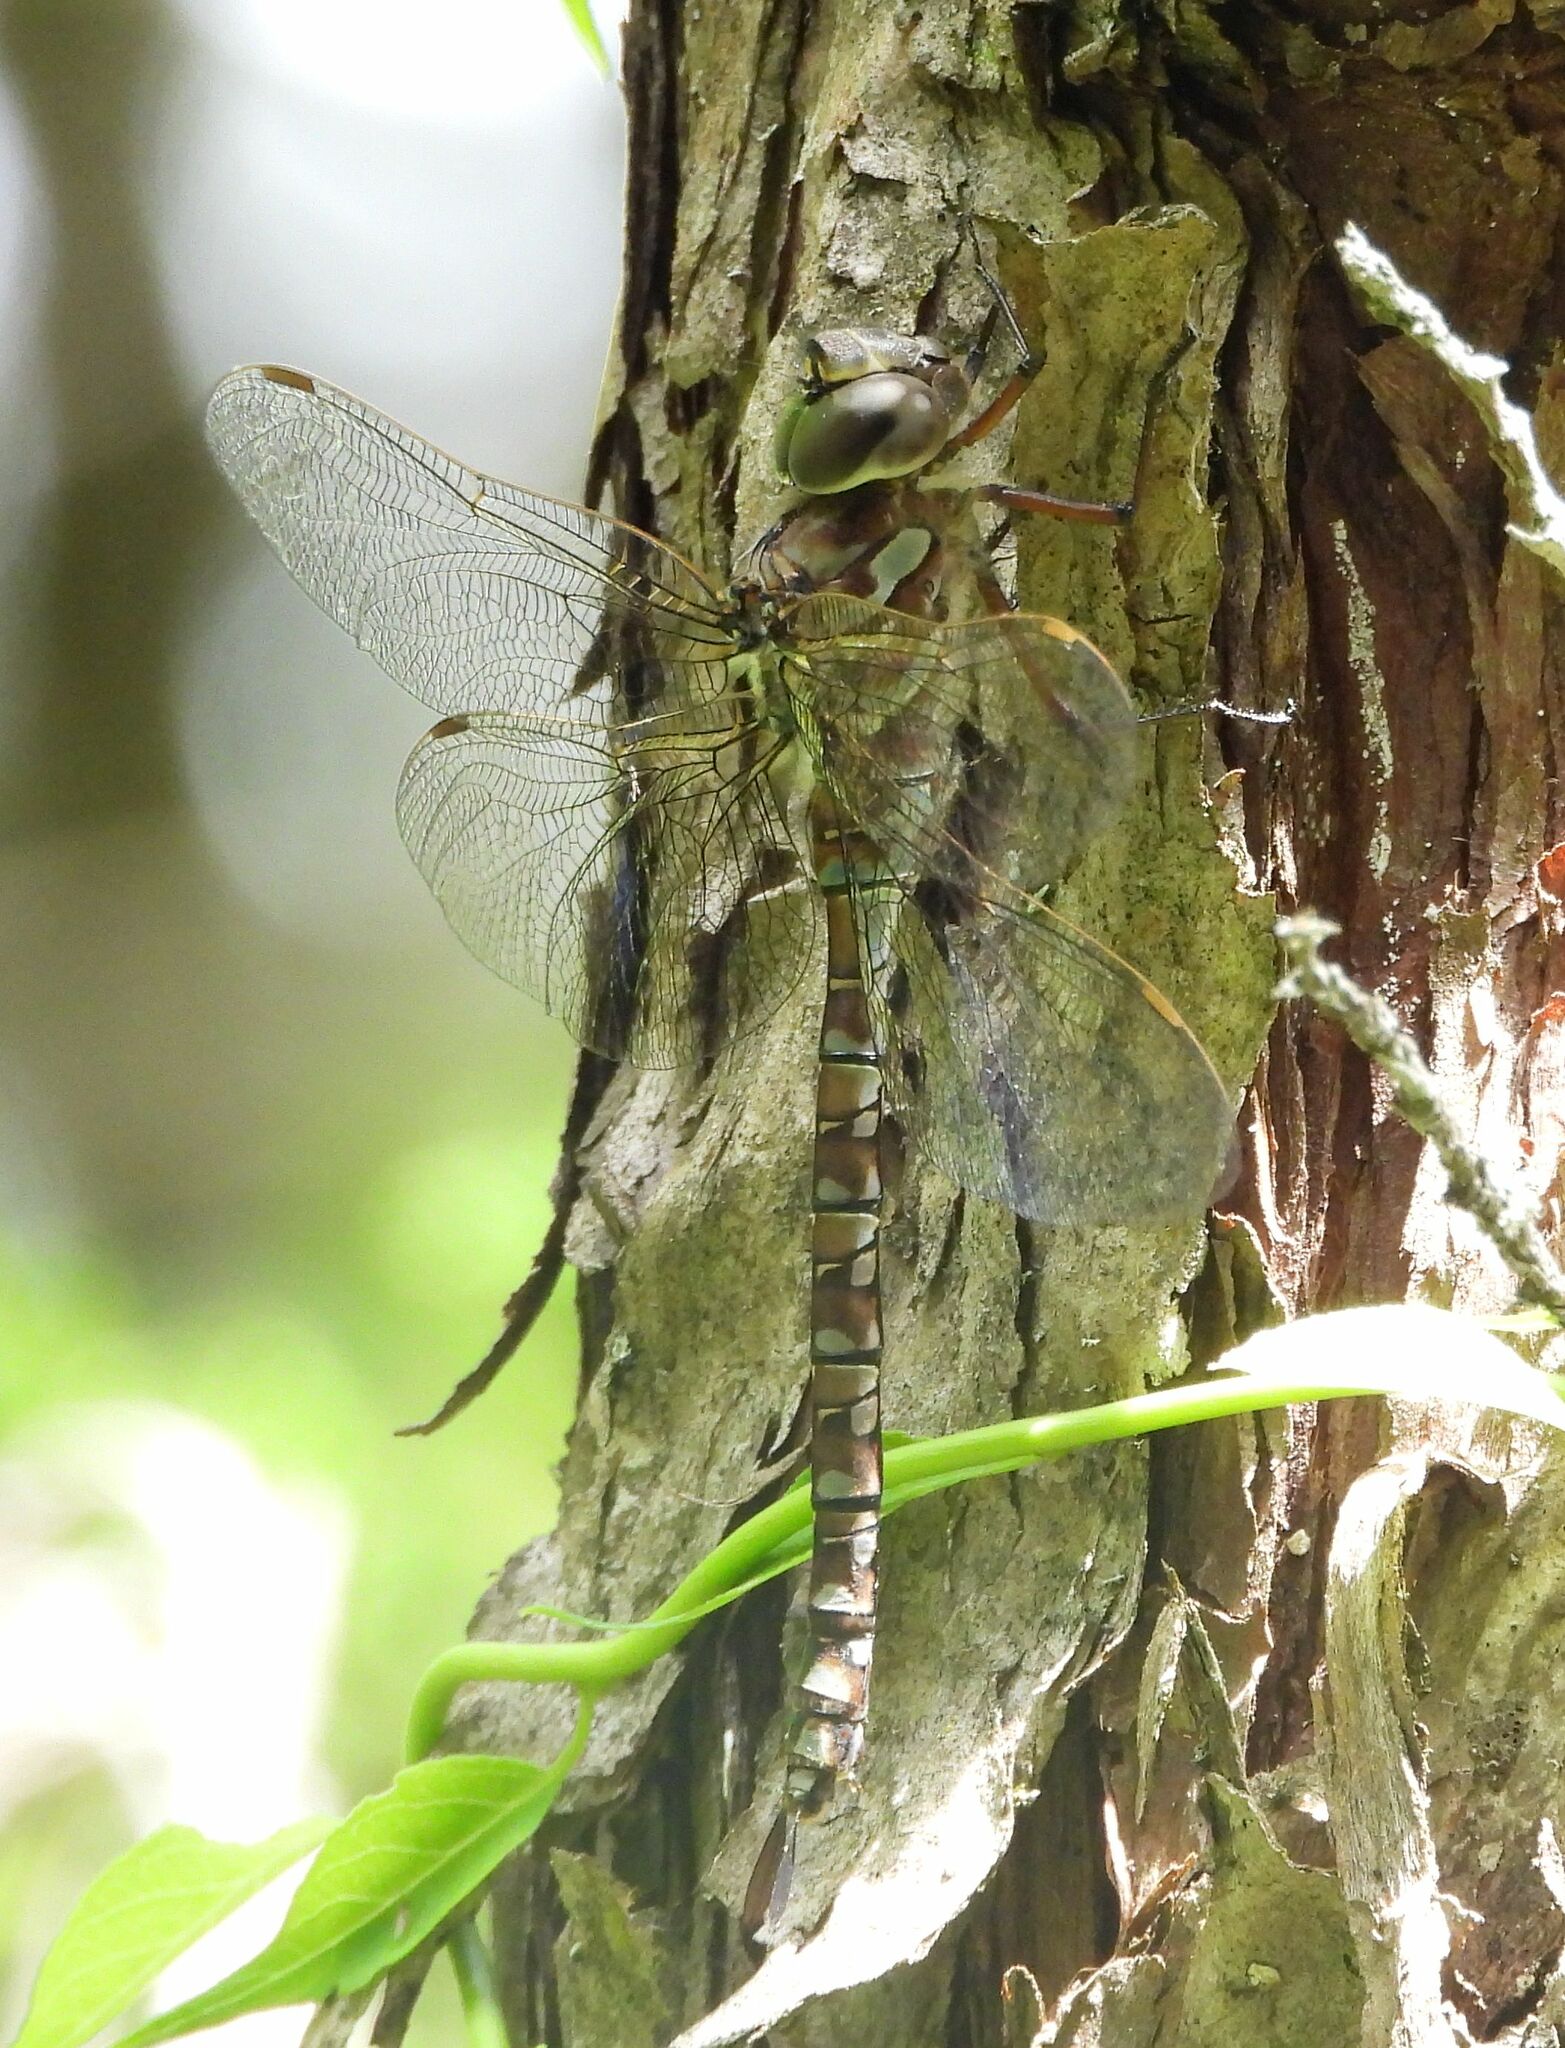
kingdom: Animalia
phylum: Arthropoda
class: Insecta
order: Odonata
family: Aeshnidae
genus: Aeshna
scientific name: Aeshna canadensis
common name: Canada darner
